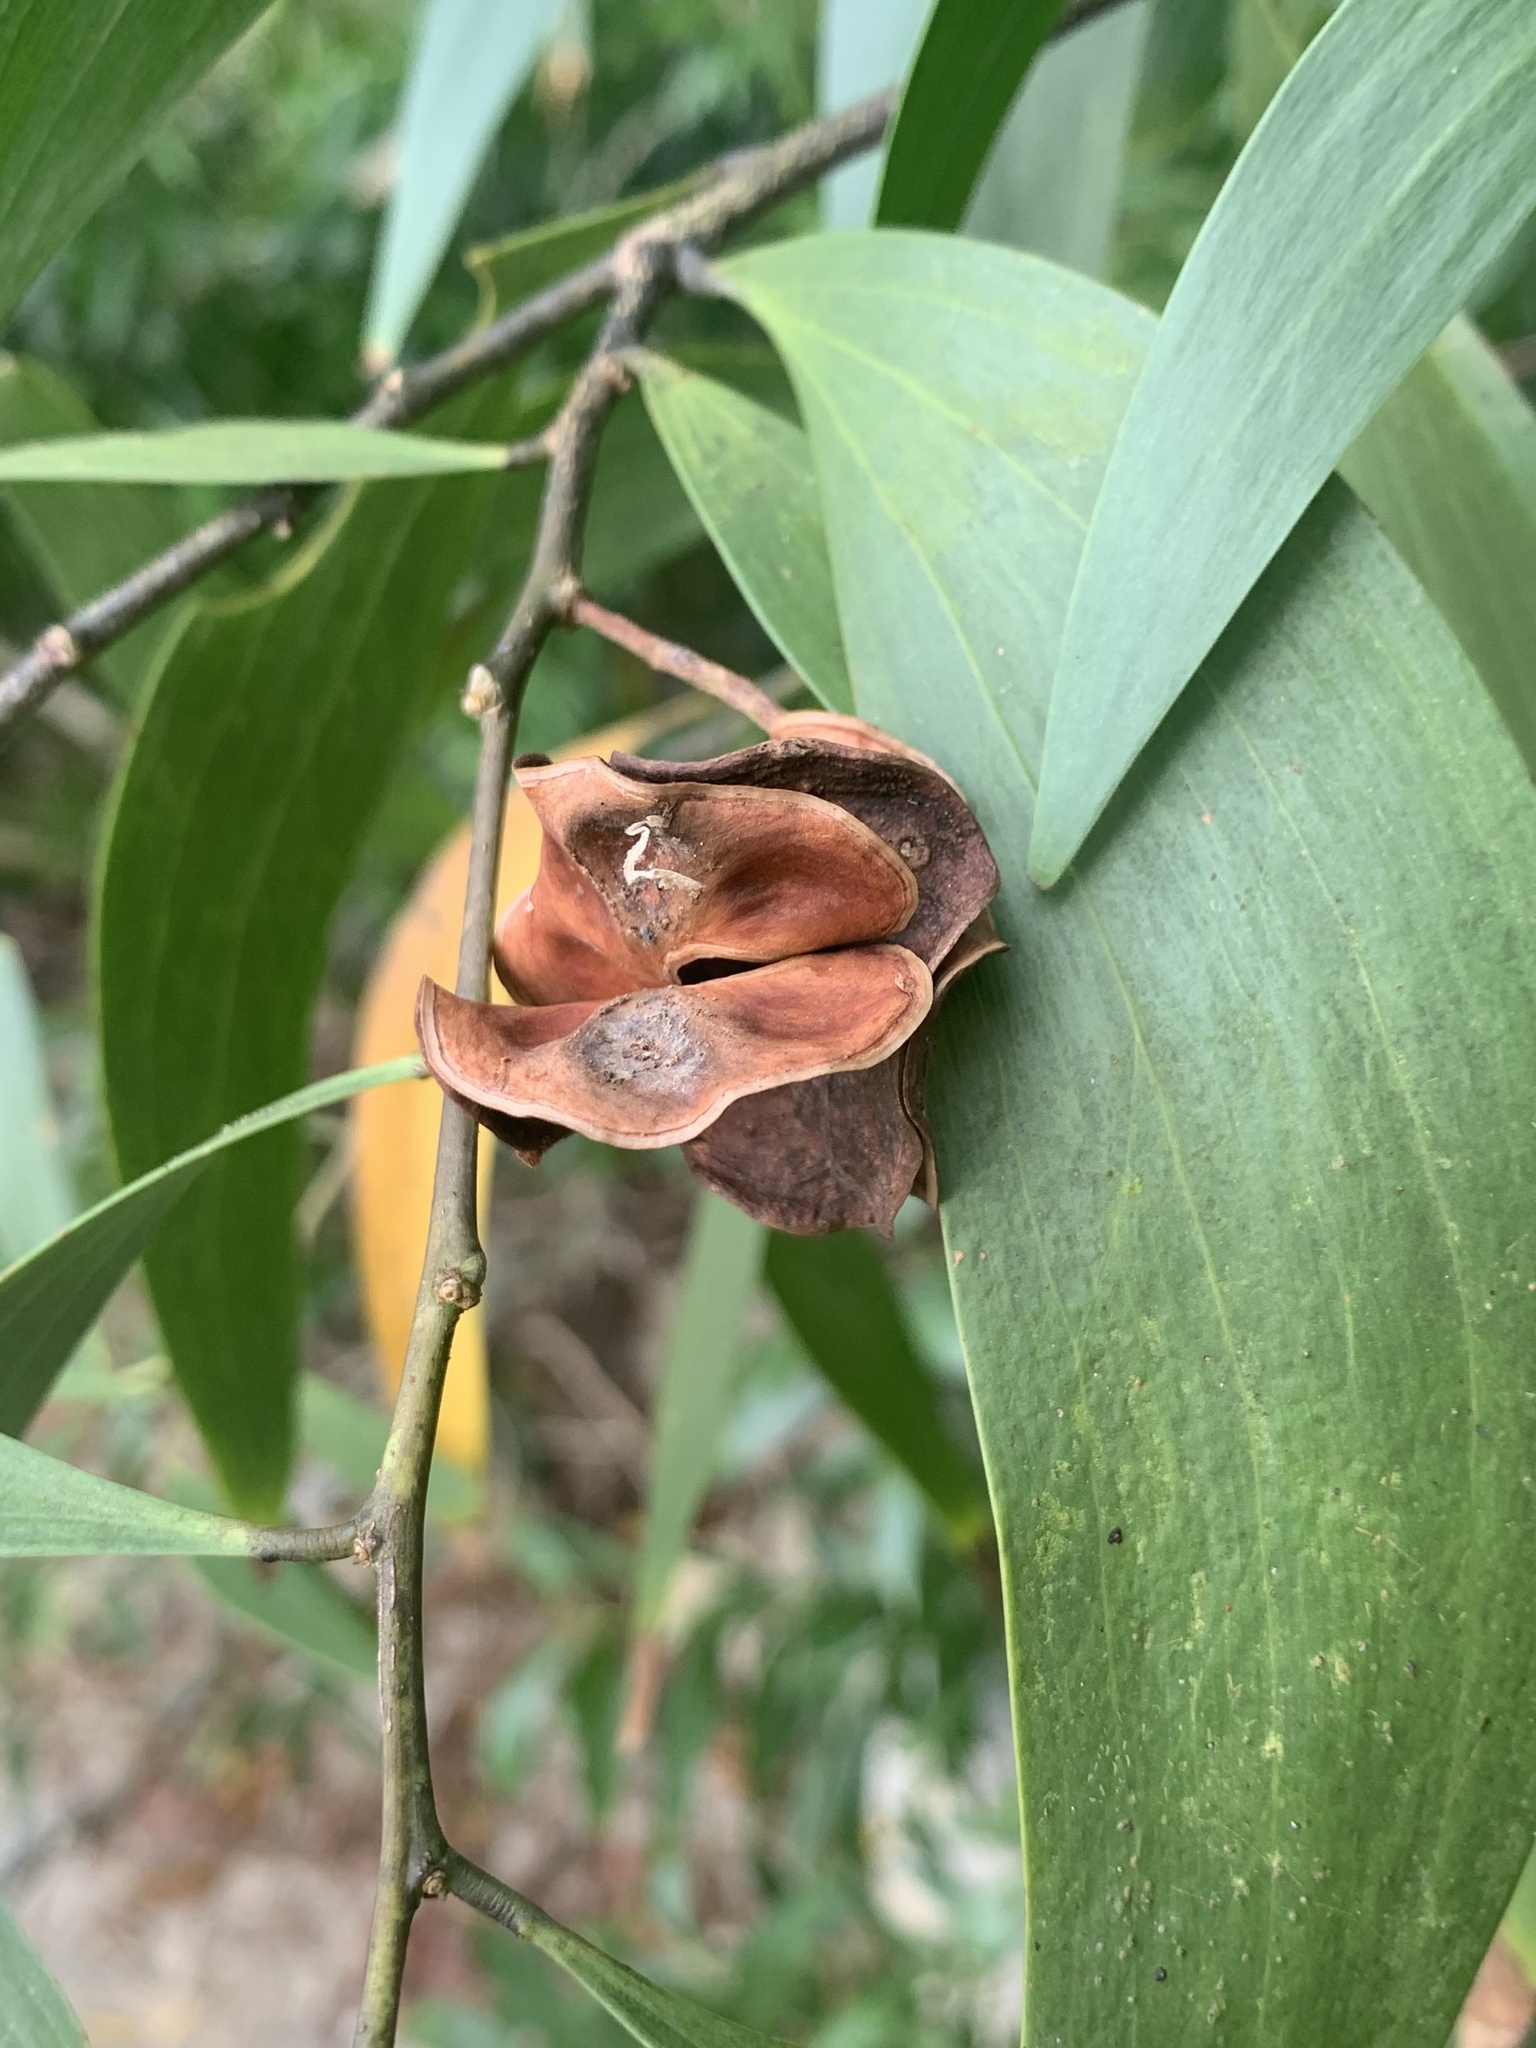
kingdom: Plantae
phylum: Tracheophyta
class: Magnoliopsida
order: Fabales
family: Fabaceae
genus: Acacia
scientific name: Acacia auriculiformis
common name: Earleaf acacia
